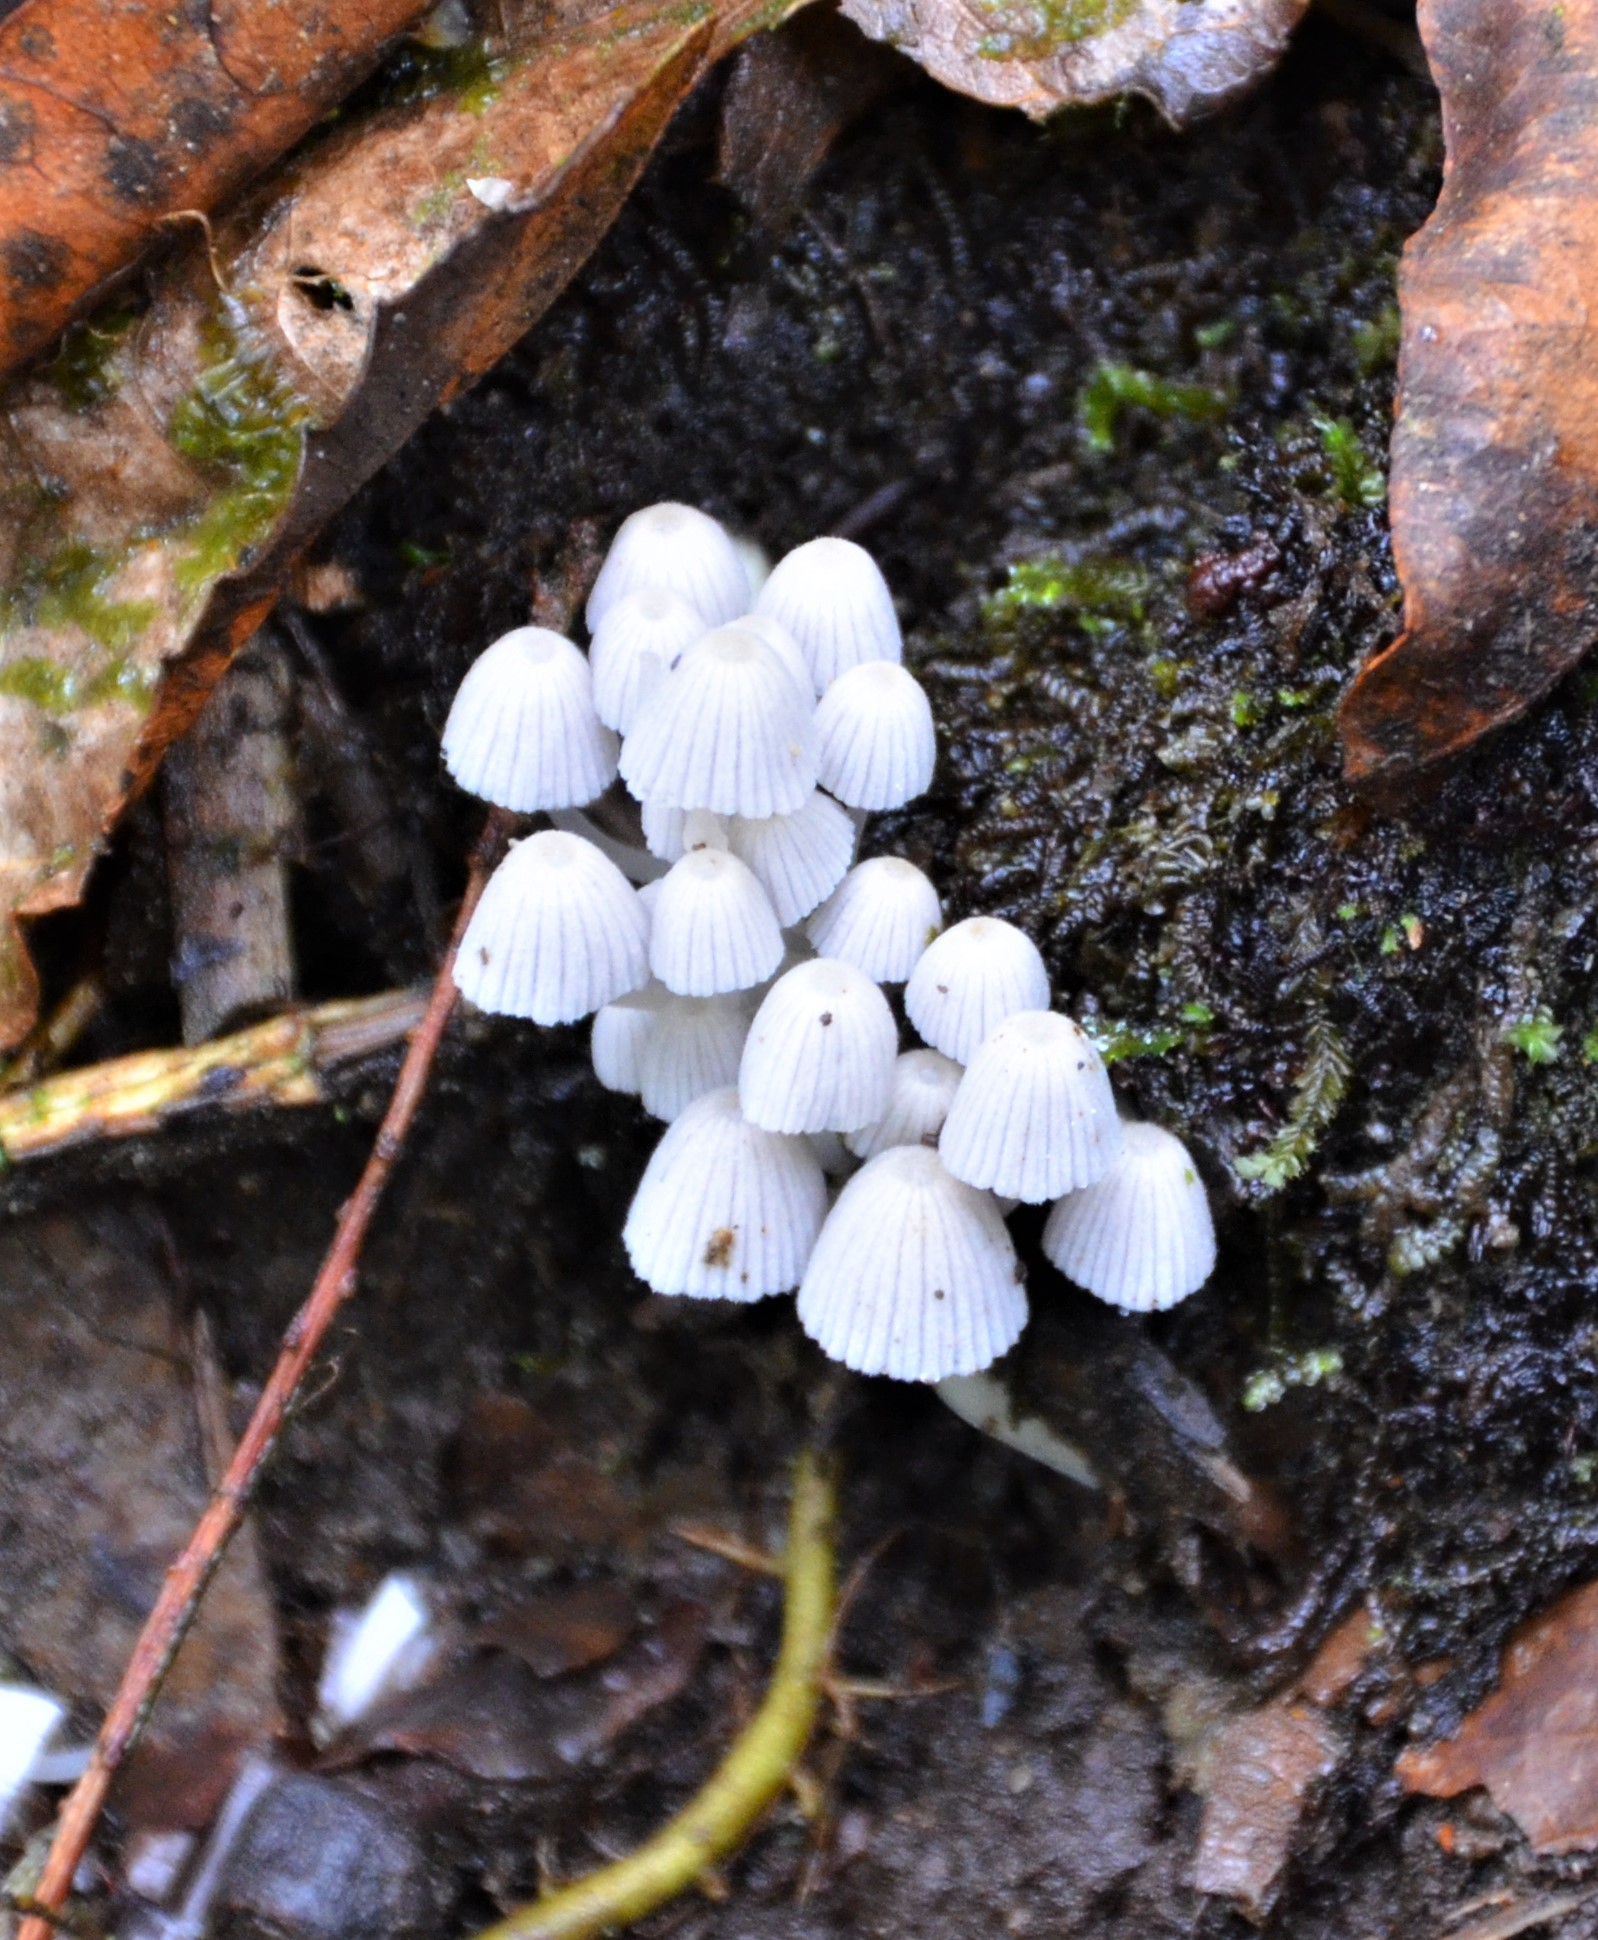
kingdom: Fungi
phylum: Basidiomycota
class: Agaricomycetes
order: Agaricales
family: Psathyrellaceae
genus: Coprinellus
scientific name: Coprinellus disseminatus
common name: Fairies' bonnets
